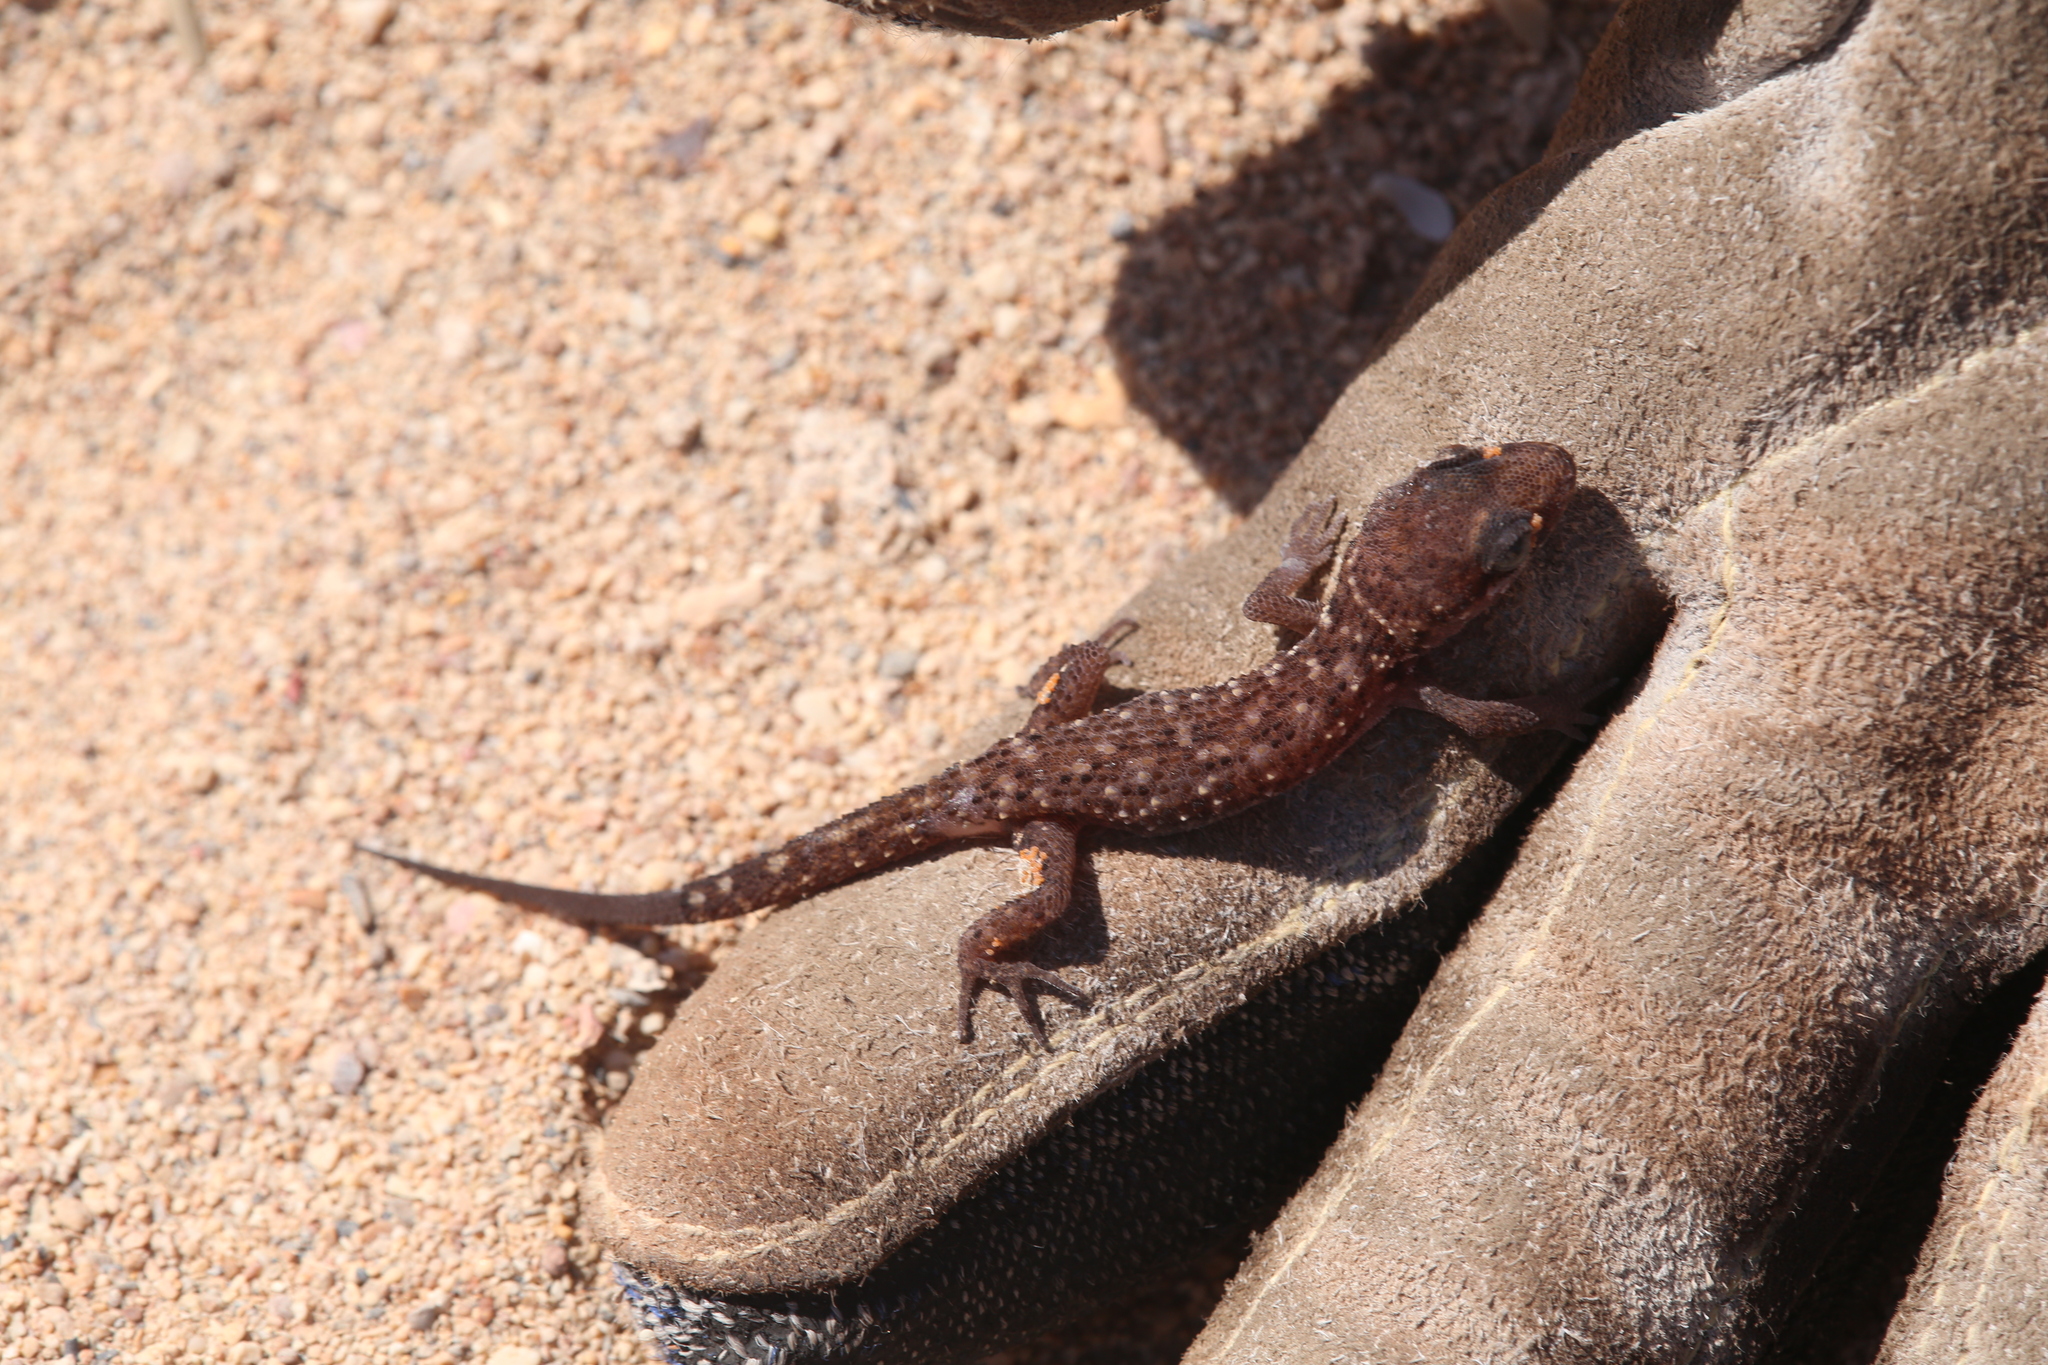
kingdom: Animalia
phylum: Chordata
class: Squamata
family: Gekkonidae
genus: Heteronotia
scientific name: Heteronotia binoei
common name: Bynoe's gecko
